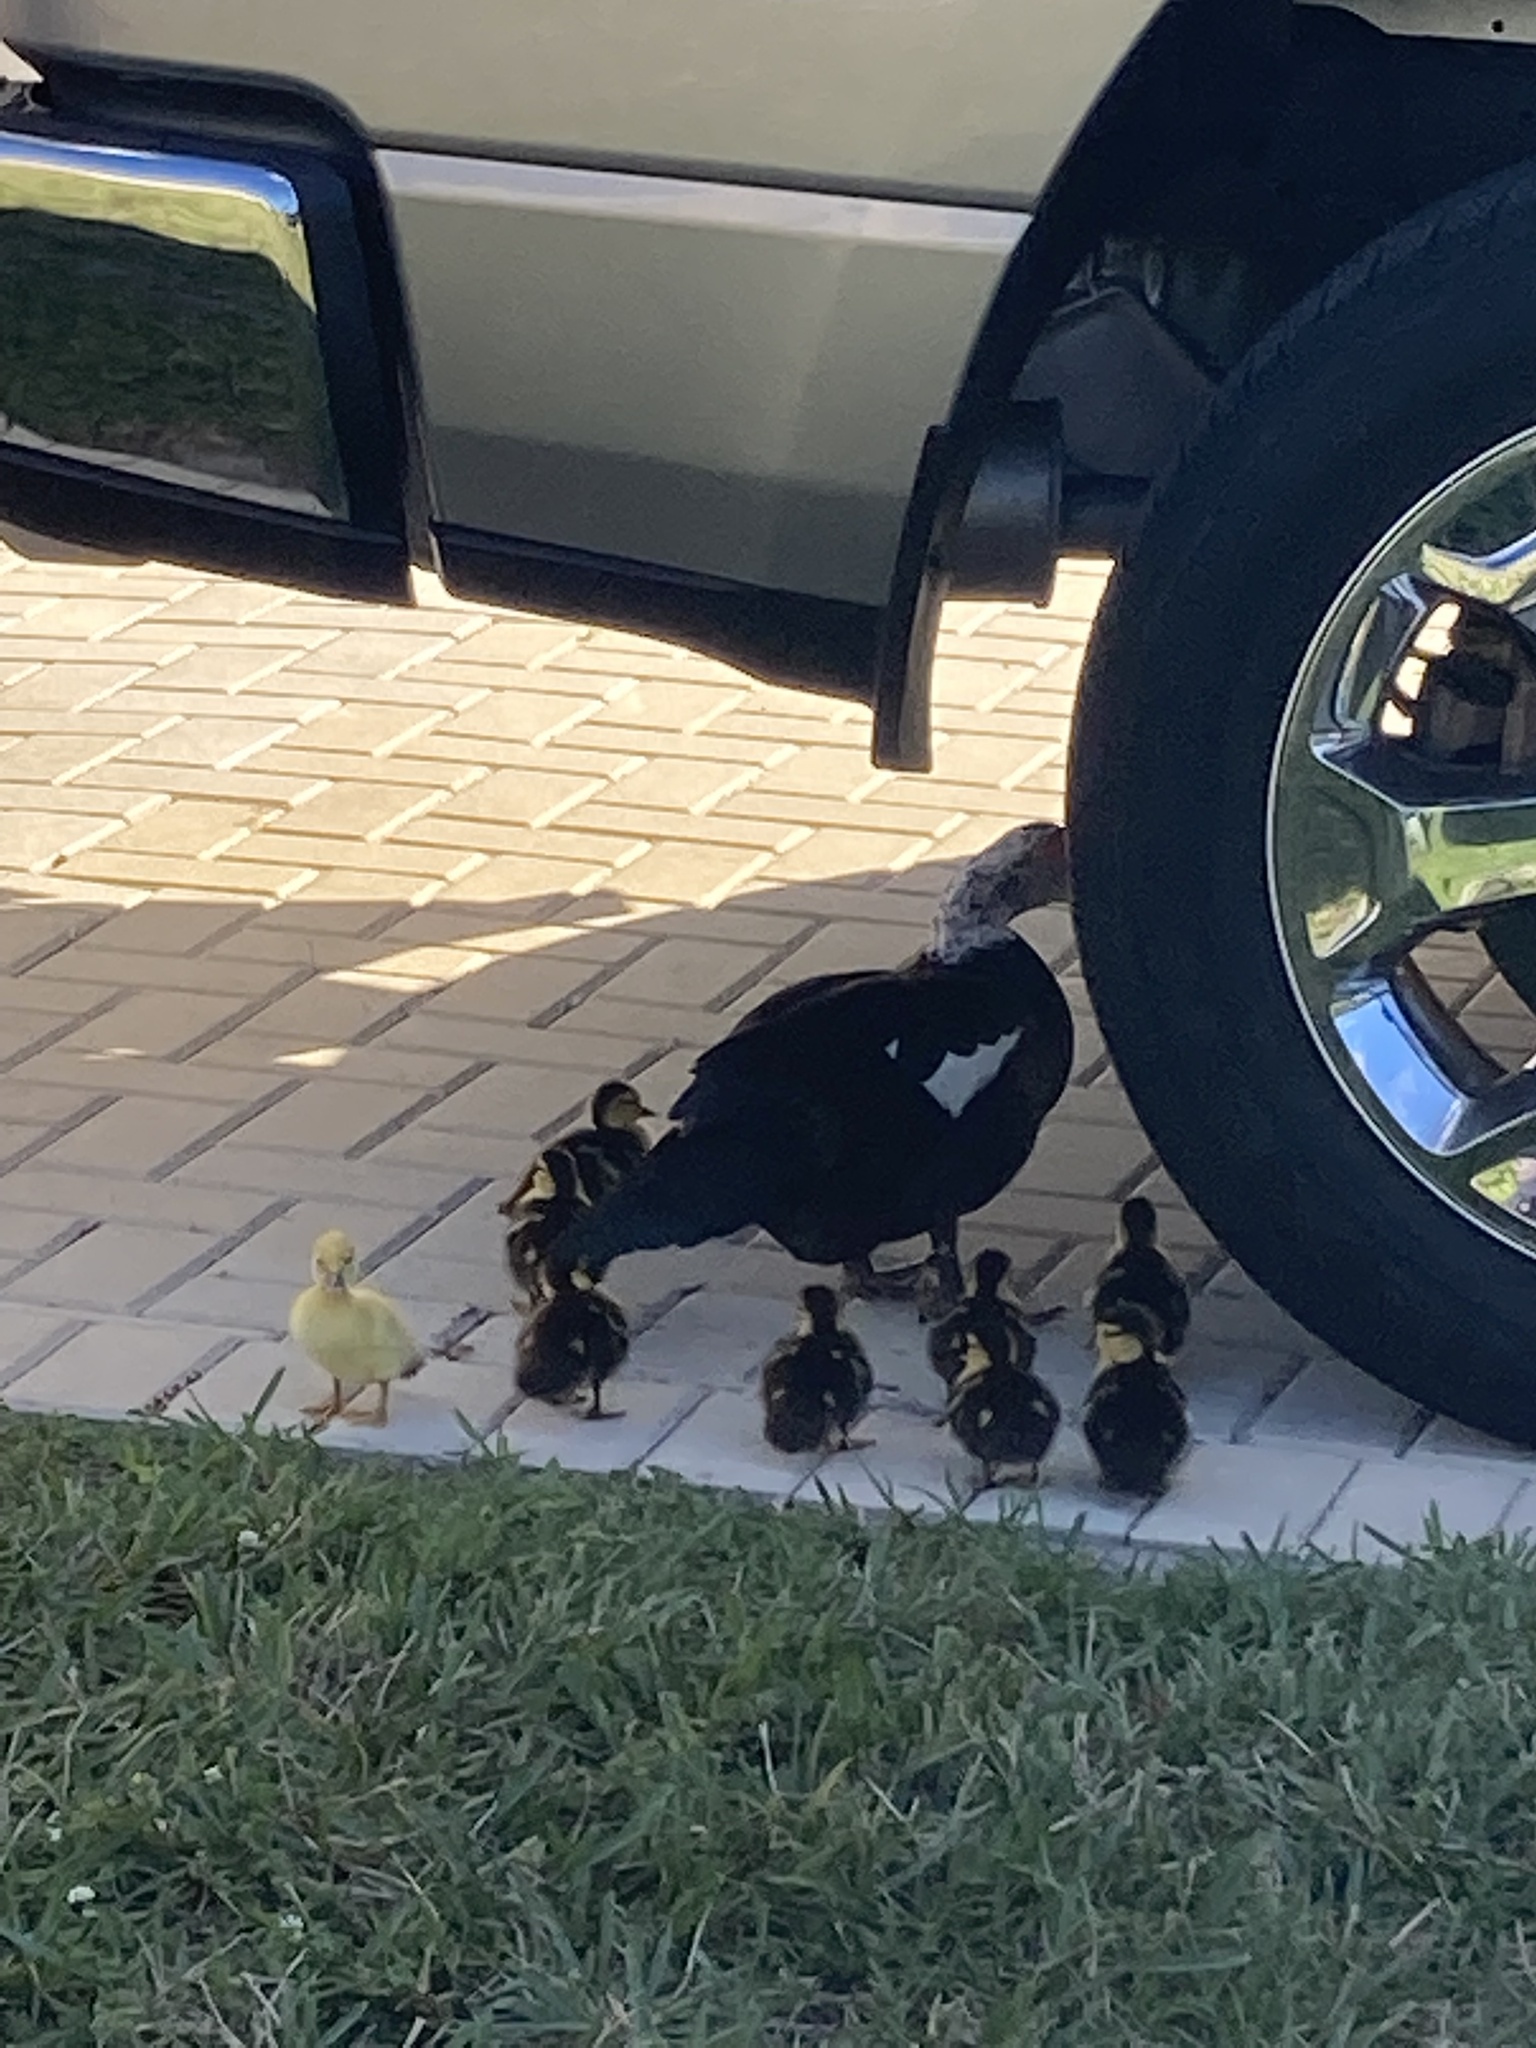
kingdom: Animalia
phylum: Chordata
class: Aves
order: Anseriformes
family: Anatidae
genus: Cairina
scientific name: Cairina moschata
